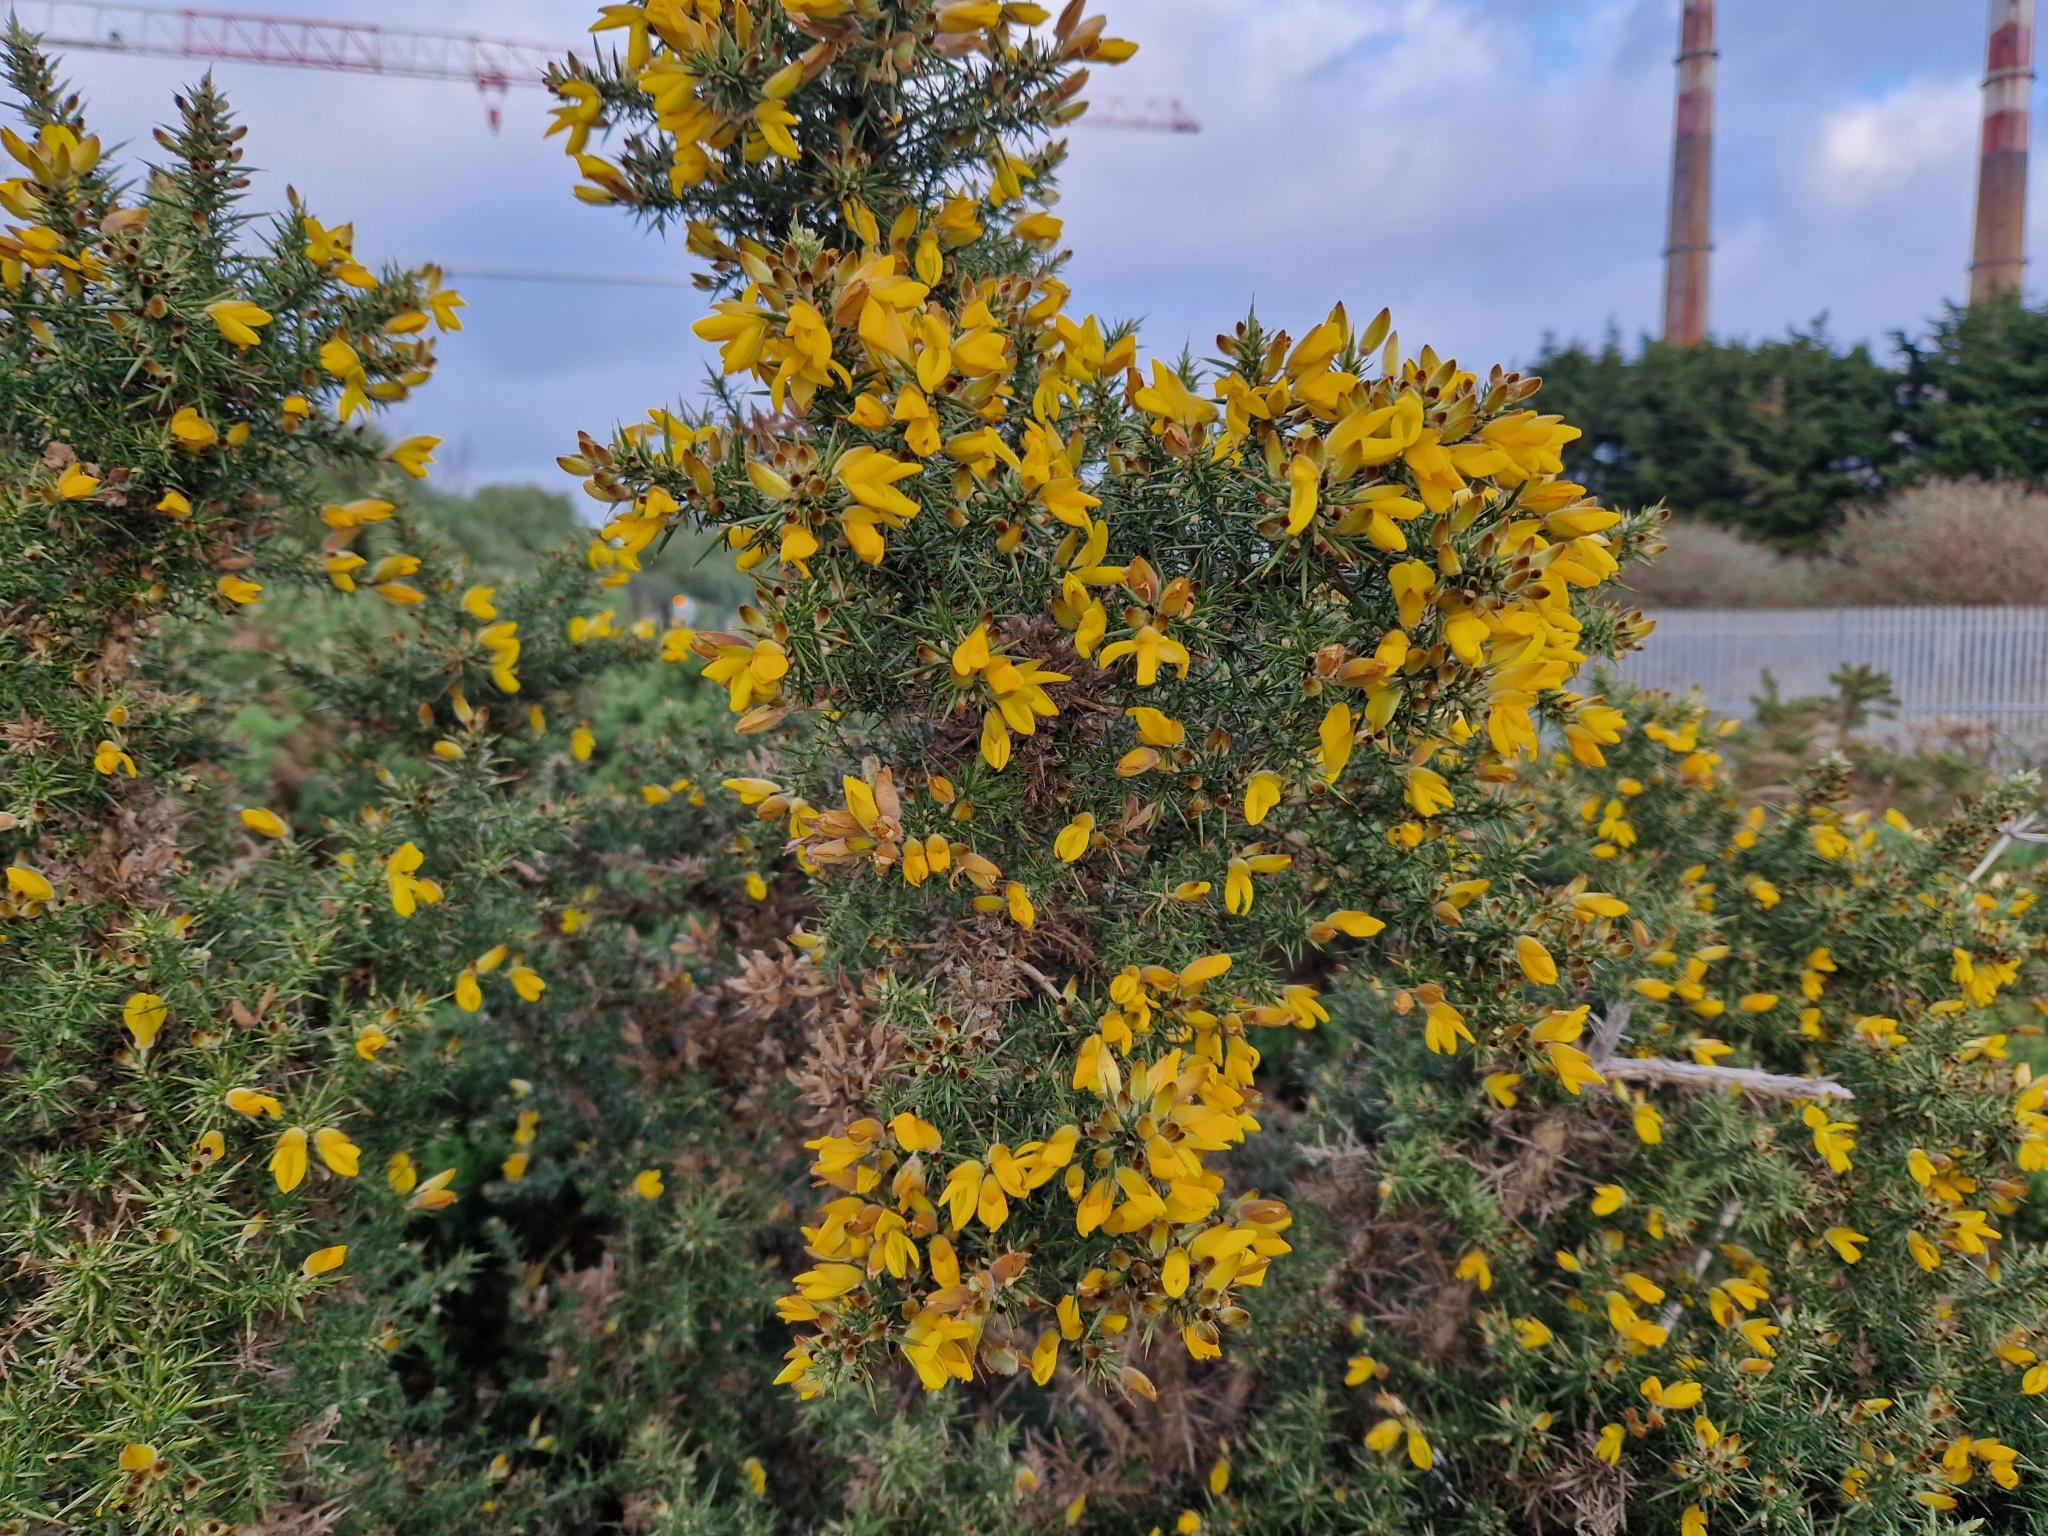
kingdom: Plantae
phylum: Tracheophyta
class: Magnoliopsida
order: Fabales
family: Fabaceae
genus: Ulex
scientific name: Ulex europaeus
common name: Common gorse
